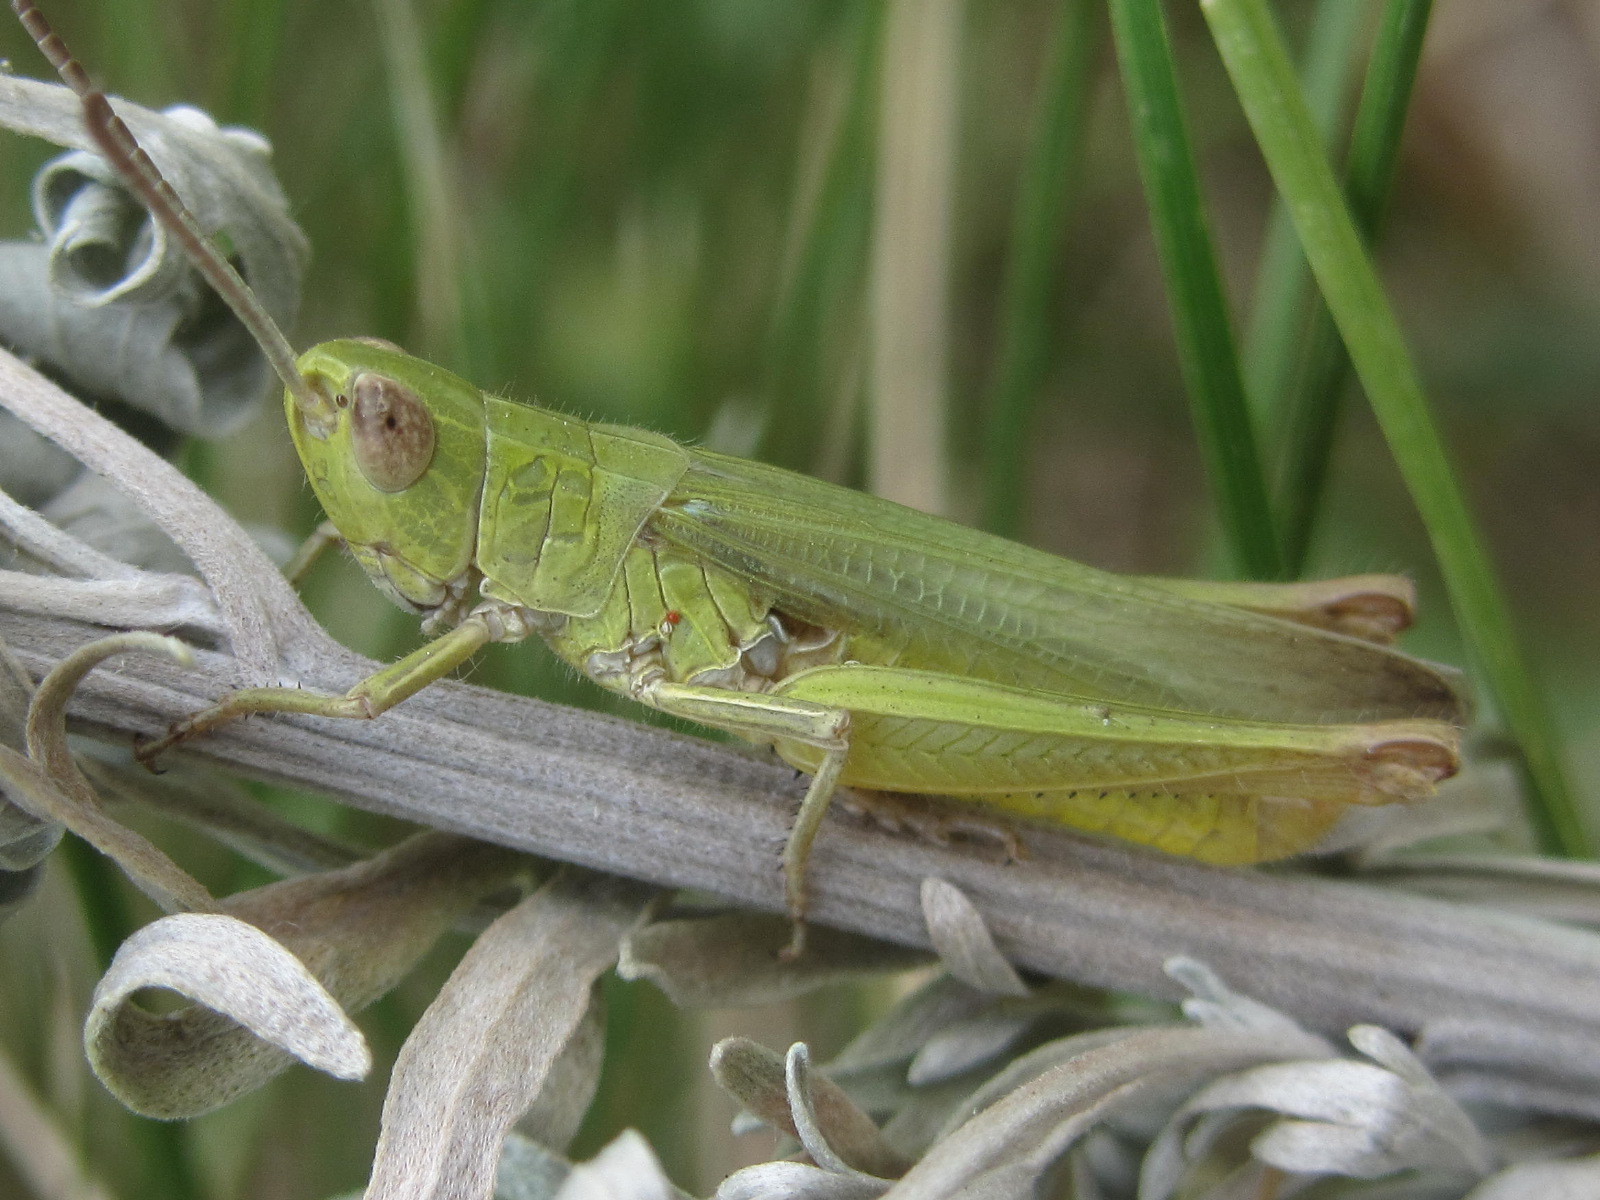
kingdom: Animalia
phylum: Arthropoda
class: Insecta
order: Orthoptera
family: Acrididae
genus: Chorthippus
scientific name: Chorthippus dichrous
